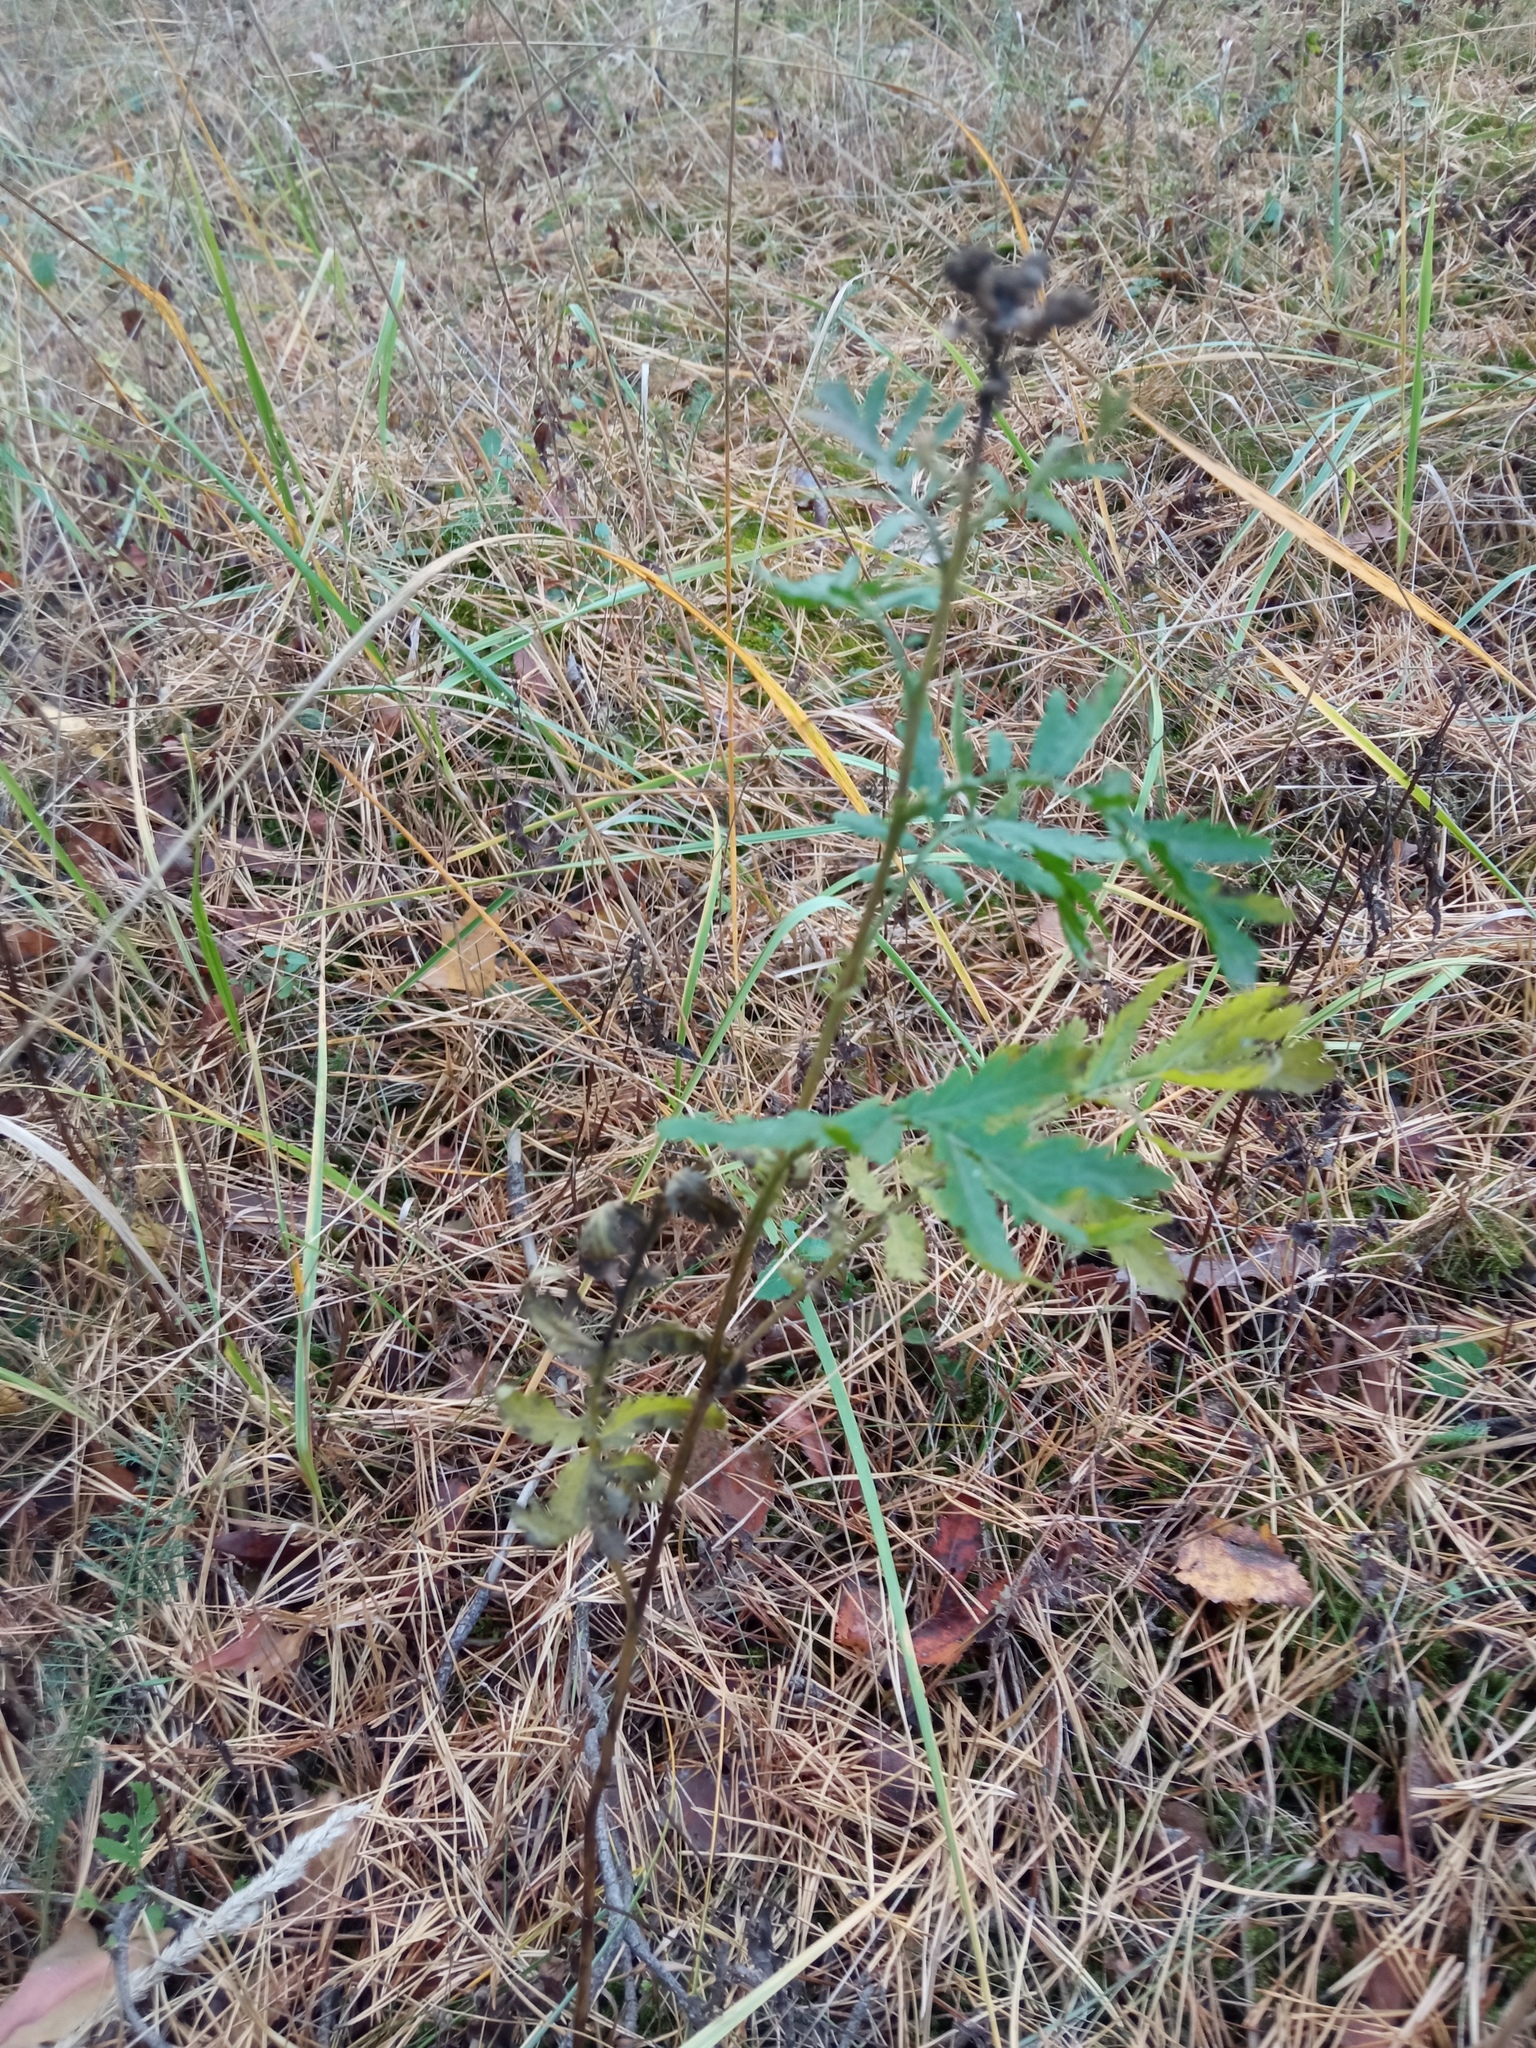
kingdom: Plantae
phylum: Tracheophyta
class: Magnoliopsida
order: Asterales
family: Asteraceae
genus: Tanacetum
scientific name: Tanacetum vulgare
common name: Common tansy
